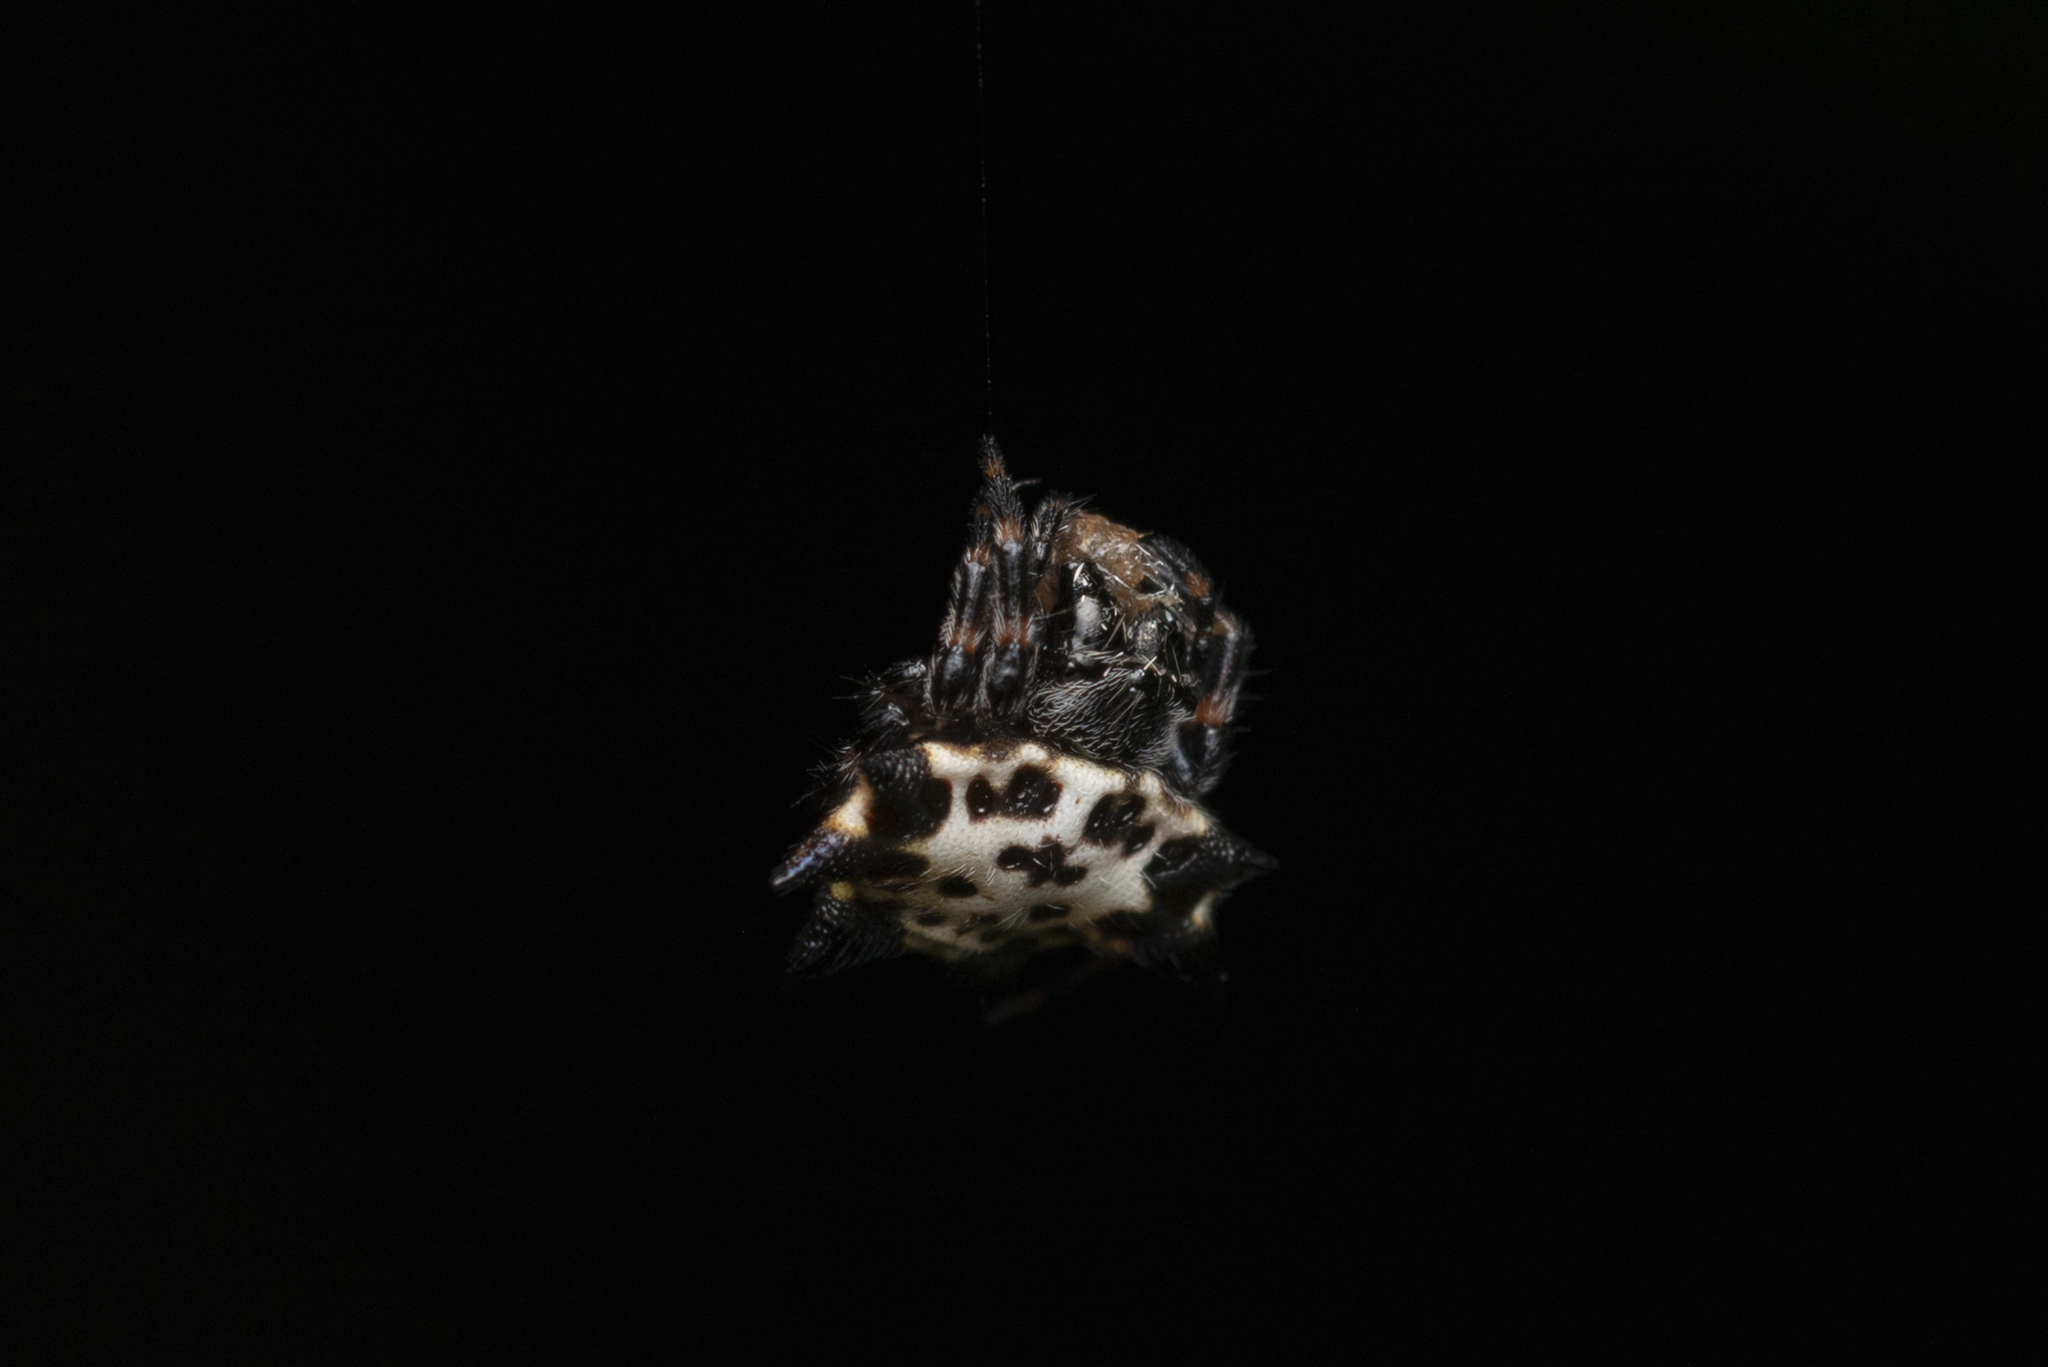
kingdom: Animalia
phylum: Arthropoda
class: Arachnida
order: Araneae
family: Araneidae
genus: Gasteracantha
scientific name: Gasteracantha kuhli
